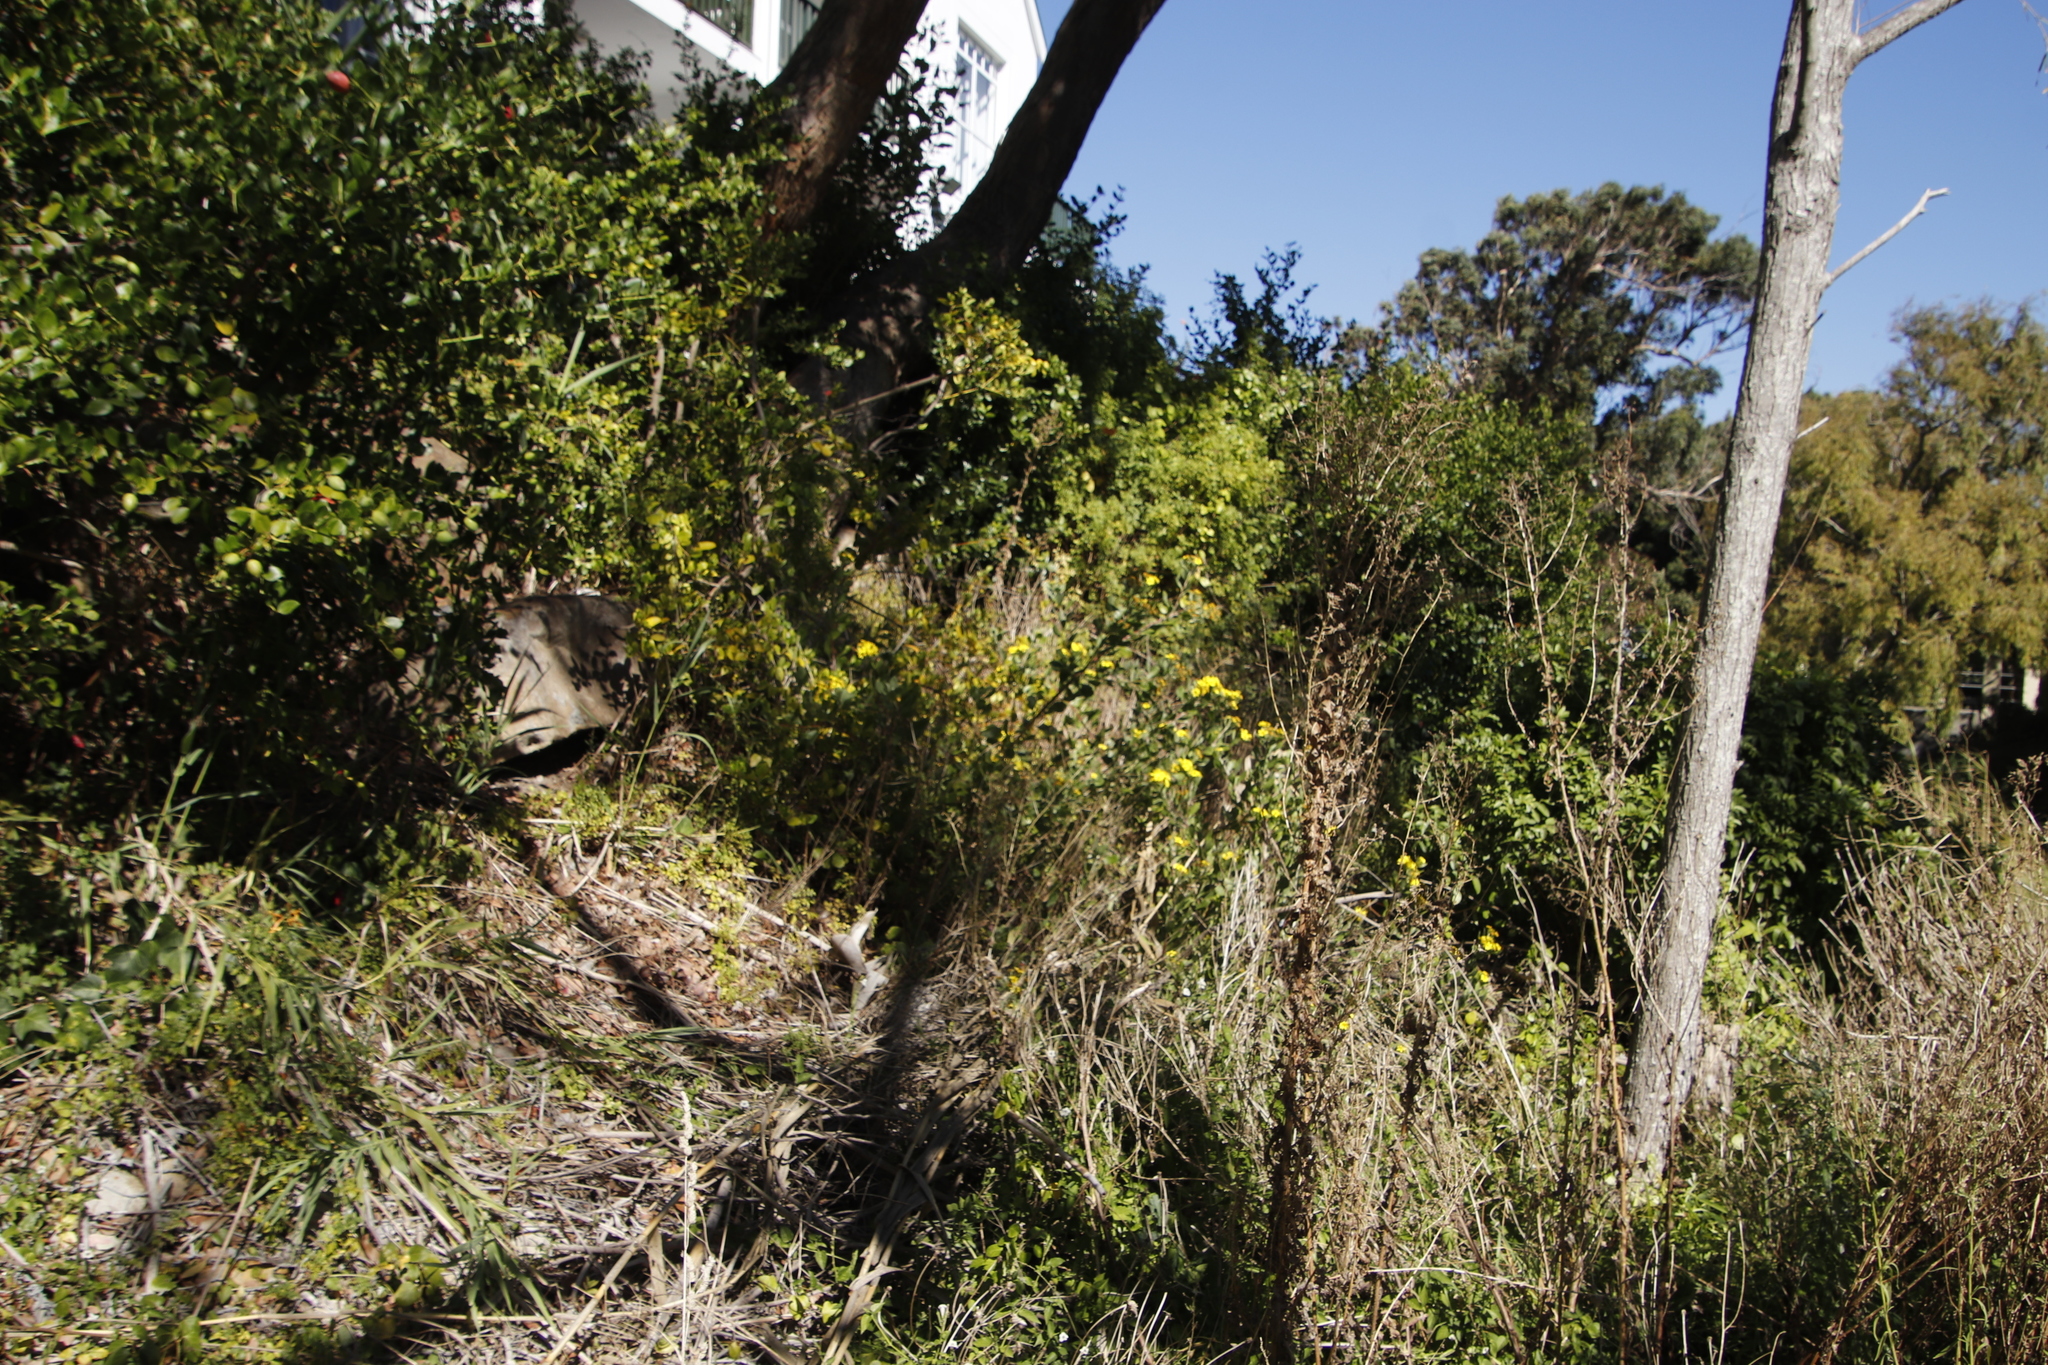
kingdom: Plantae
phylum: Tracheophyta
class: Magnoliopsida
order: Asterales
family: Asteraceae
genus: Osteospermum
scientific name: Osteospermum moniliferum
